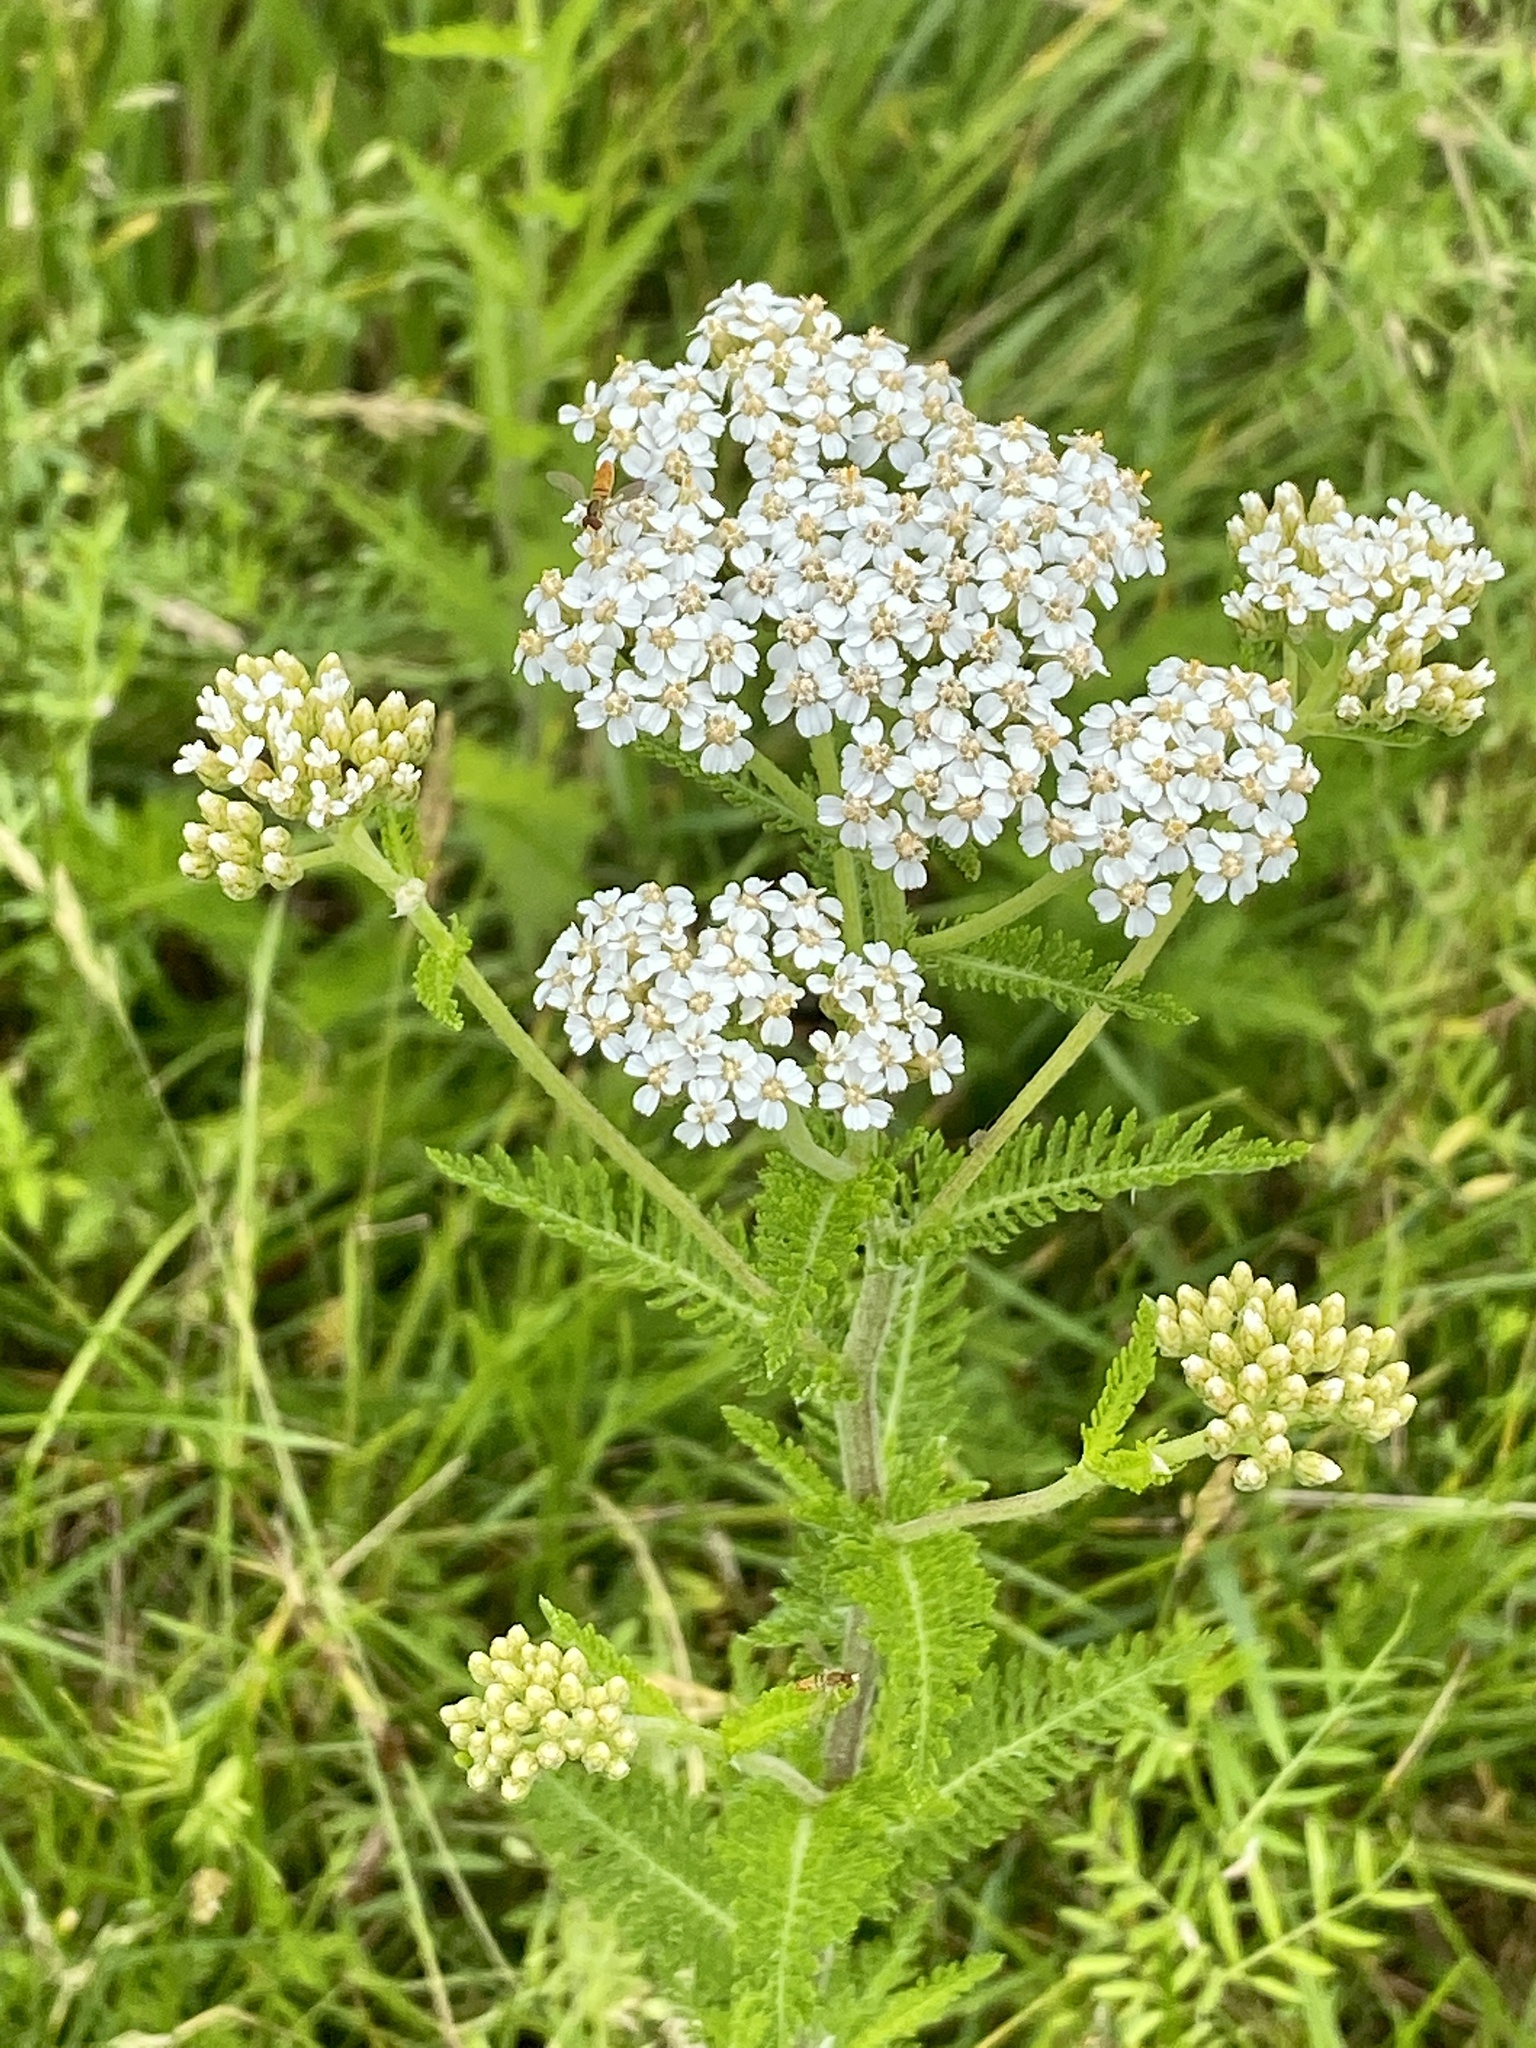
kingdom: Plantae
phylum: Tracheophyta
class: Magnoliopsida
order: Asterales
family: Asteraceae
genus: Achillea
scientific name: Achillea millefolium
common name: Yarrow
